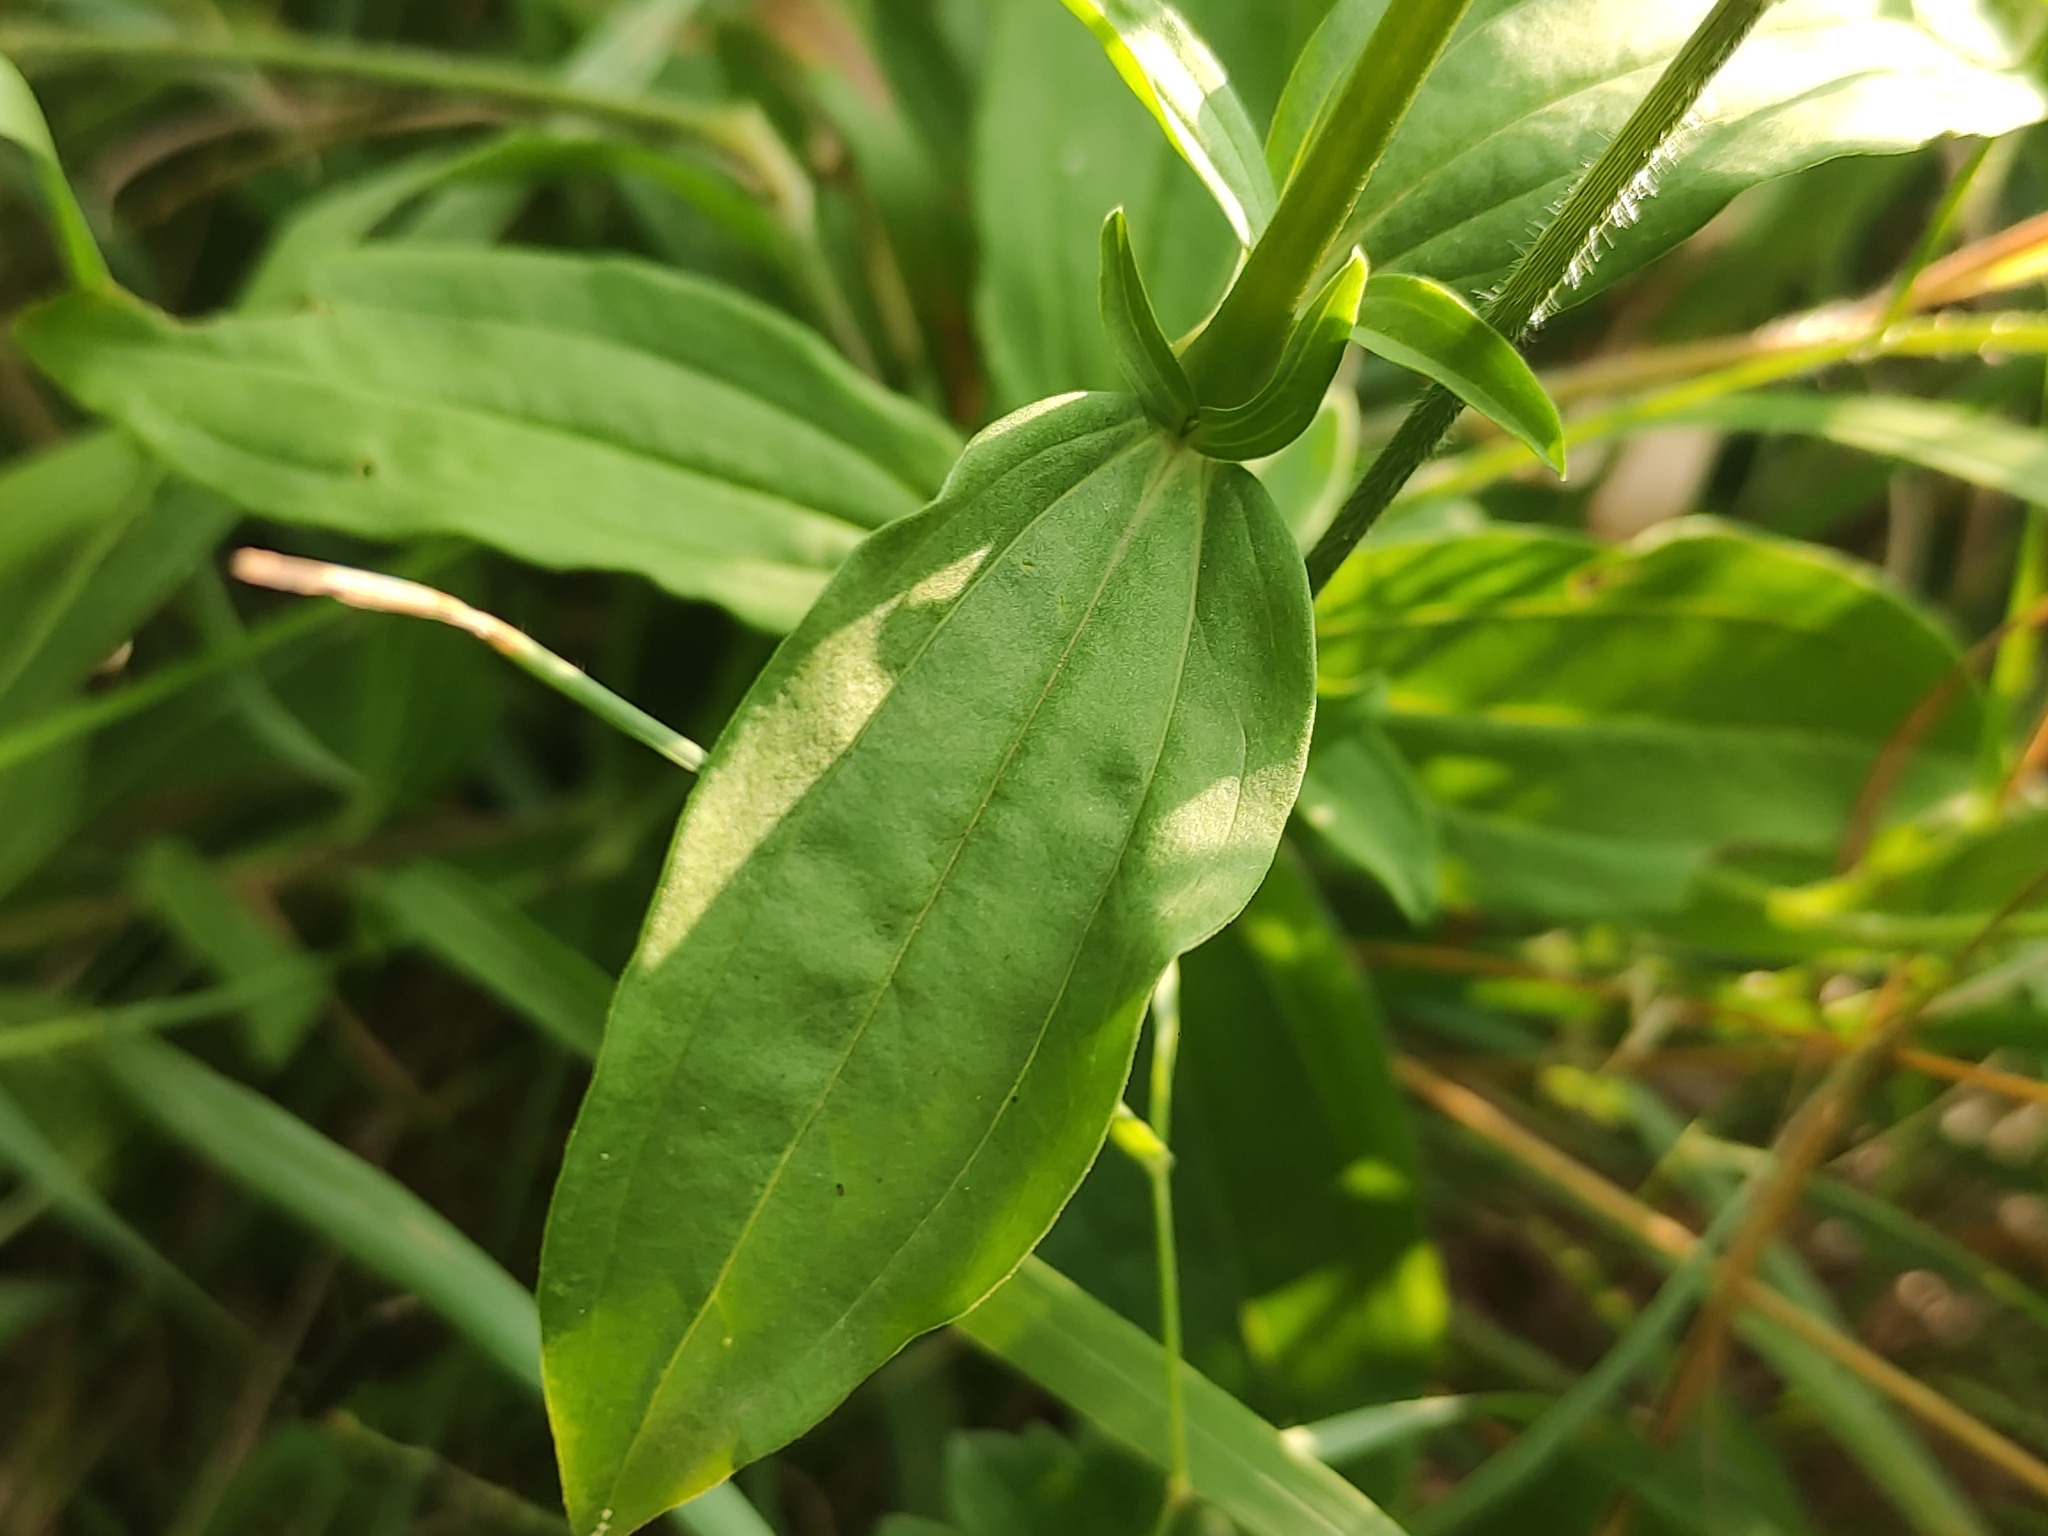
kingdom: Plantae
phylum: Tracheophyta
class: Magnoliopsida
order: Caryophyllales
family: Caryophyllaceae
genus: Saponaria
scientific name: Saponaria officinalis
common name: Soapwort
